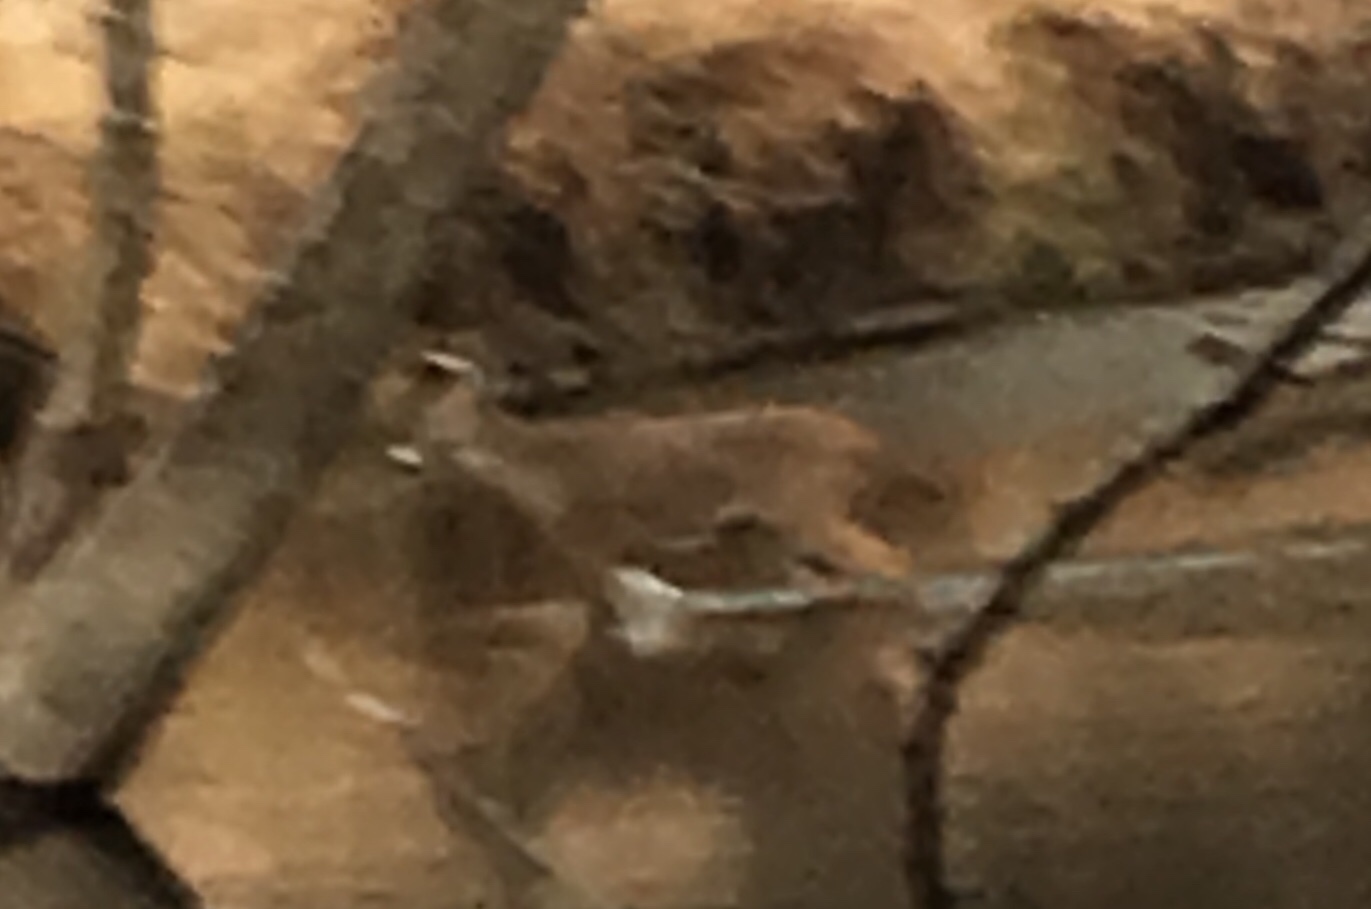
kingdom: Animalia
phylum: Chordata
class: Mammalia
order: Artiodactyla
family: Cervidae
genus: Odocoileus
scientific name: Odocoileus virginianus
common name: White-tailed deer
